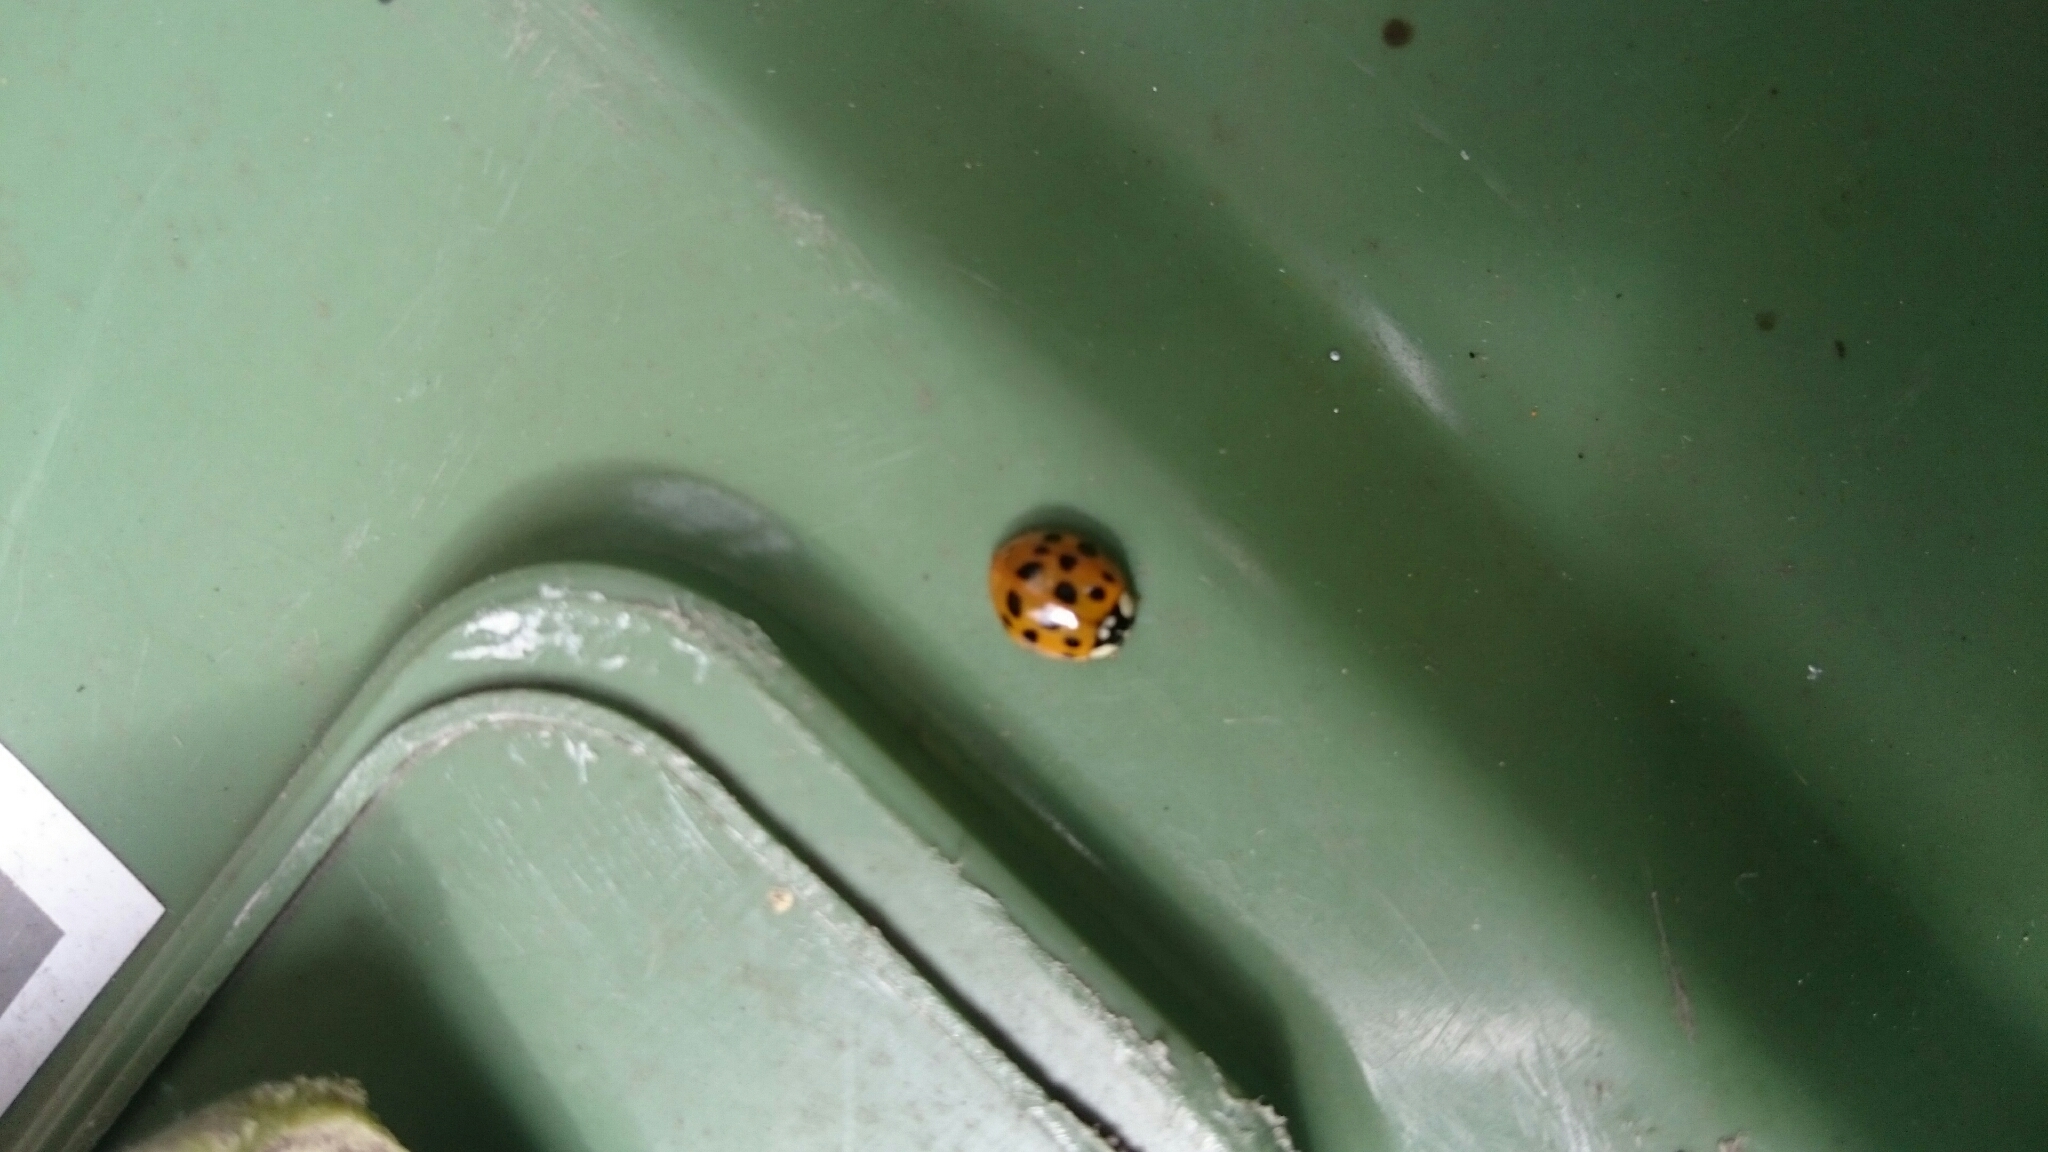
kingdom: Animalia
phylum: Arthropoda
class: Insecta
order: Coleoptera
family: Coccinellidae
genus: Harmonia
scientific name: Harmonia axyridis
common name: Harlequin ladybird
